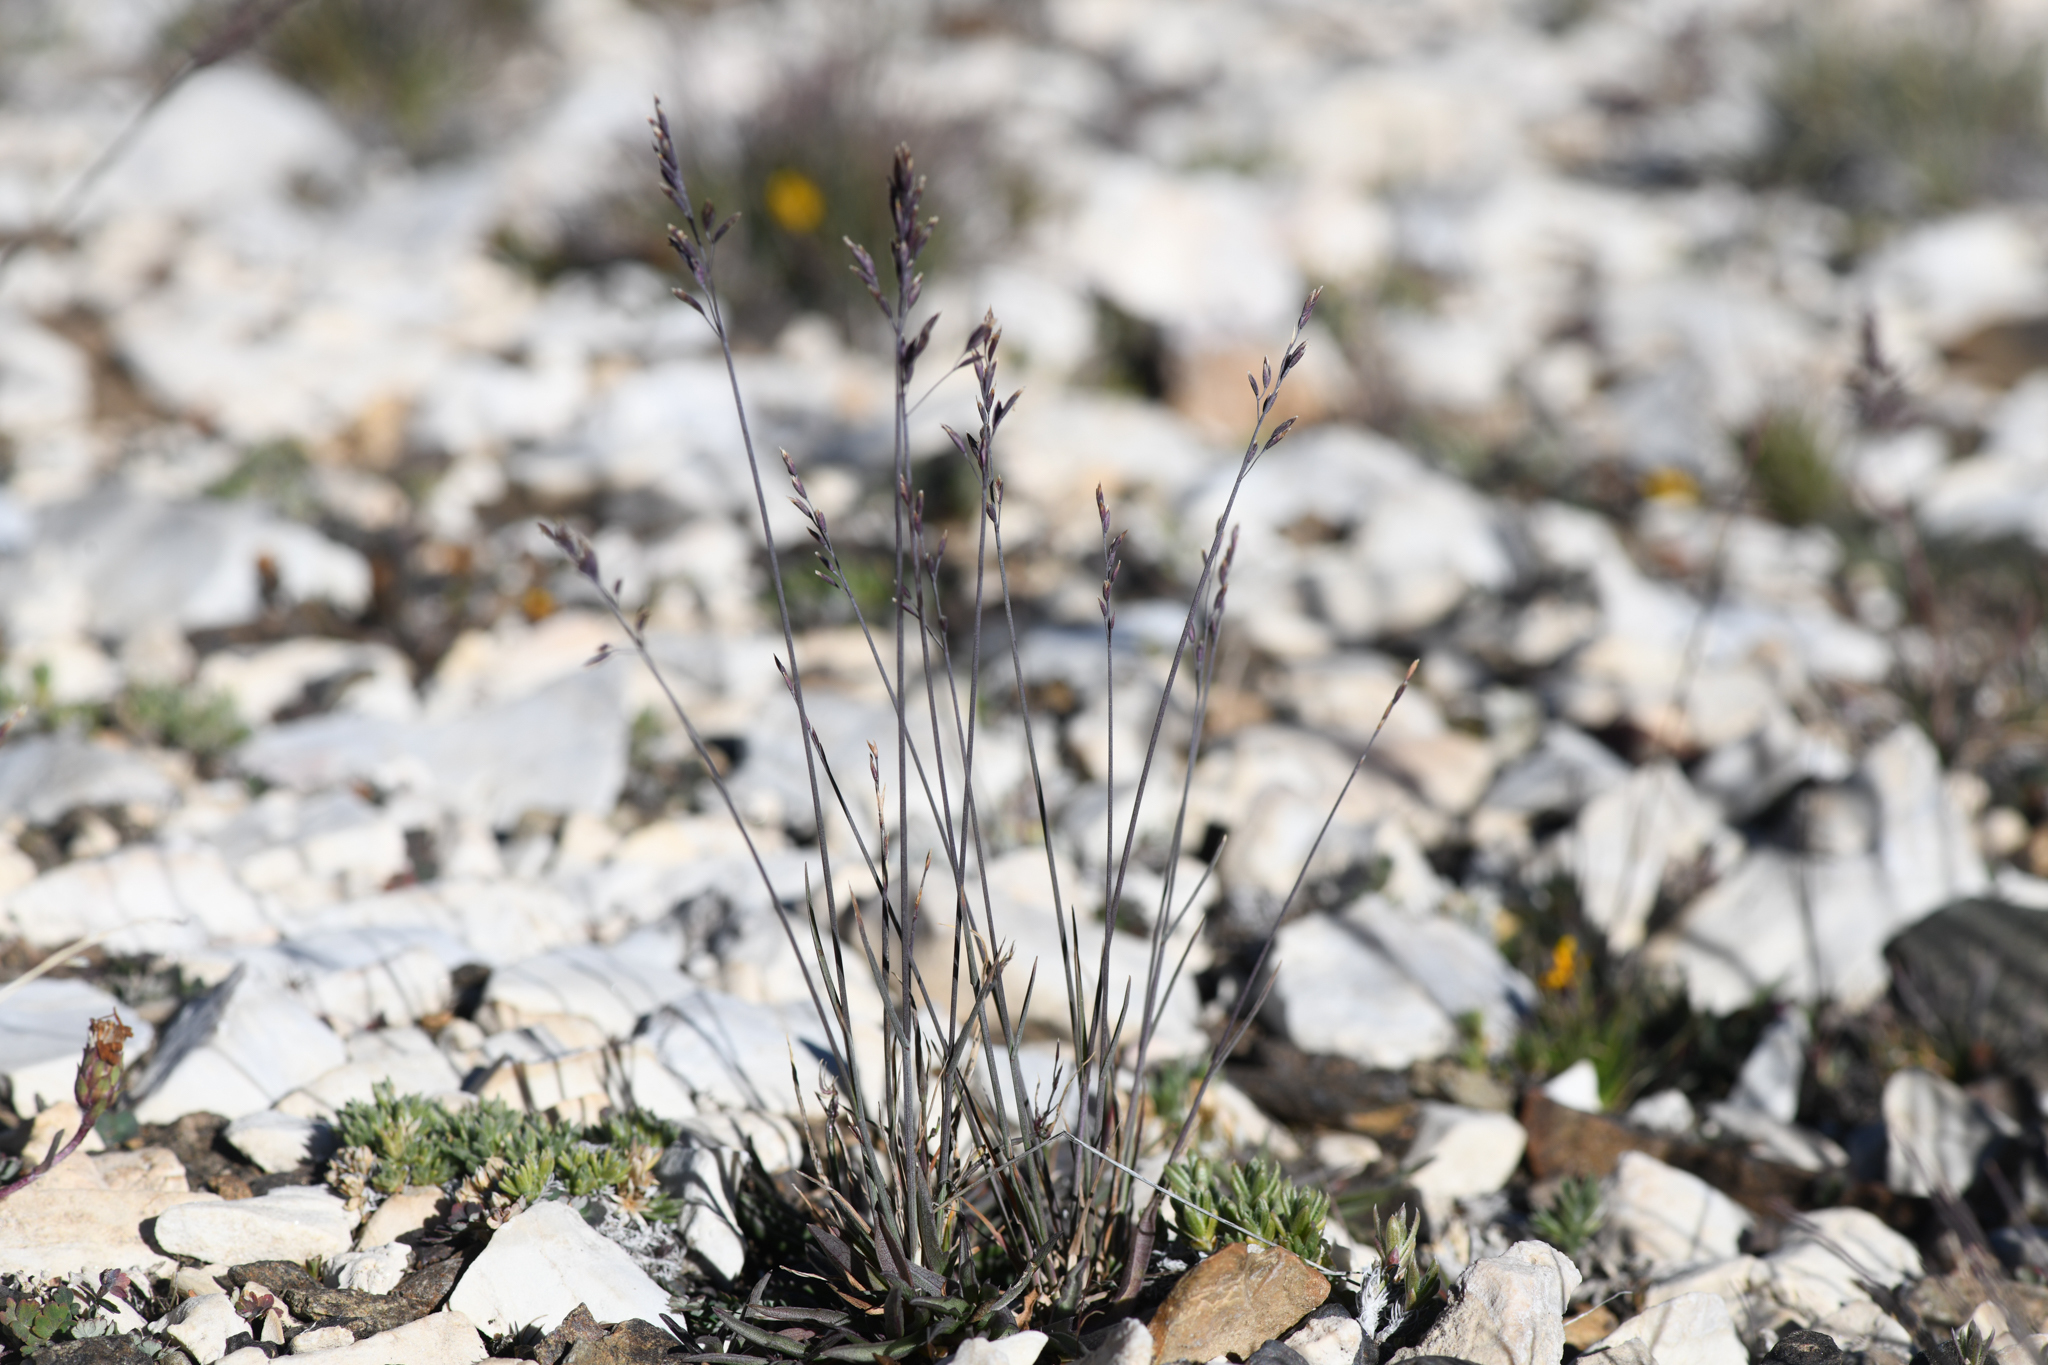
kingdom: Plantae
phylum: Tracheophyta
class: Liliopsida
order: Poales
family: Poaceae
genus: Poa
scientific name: Poa glauca
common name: Glaucous bluegrass
